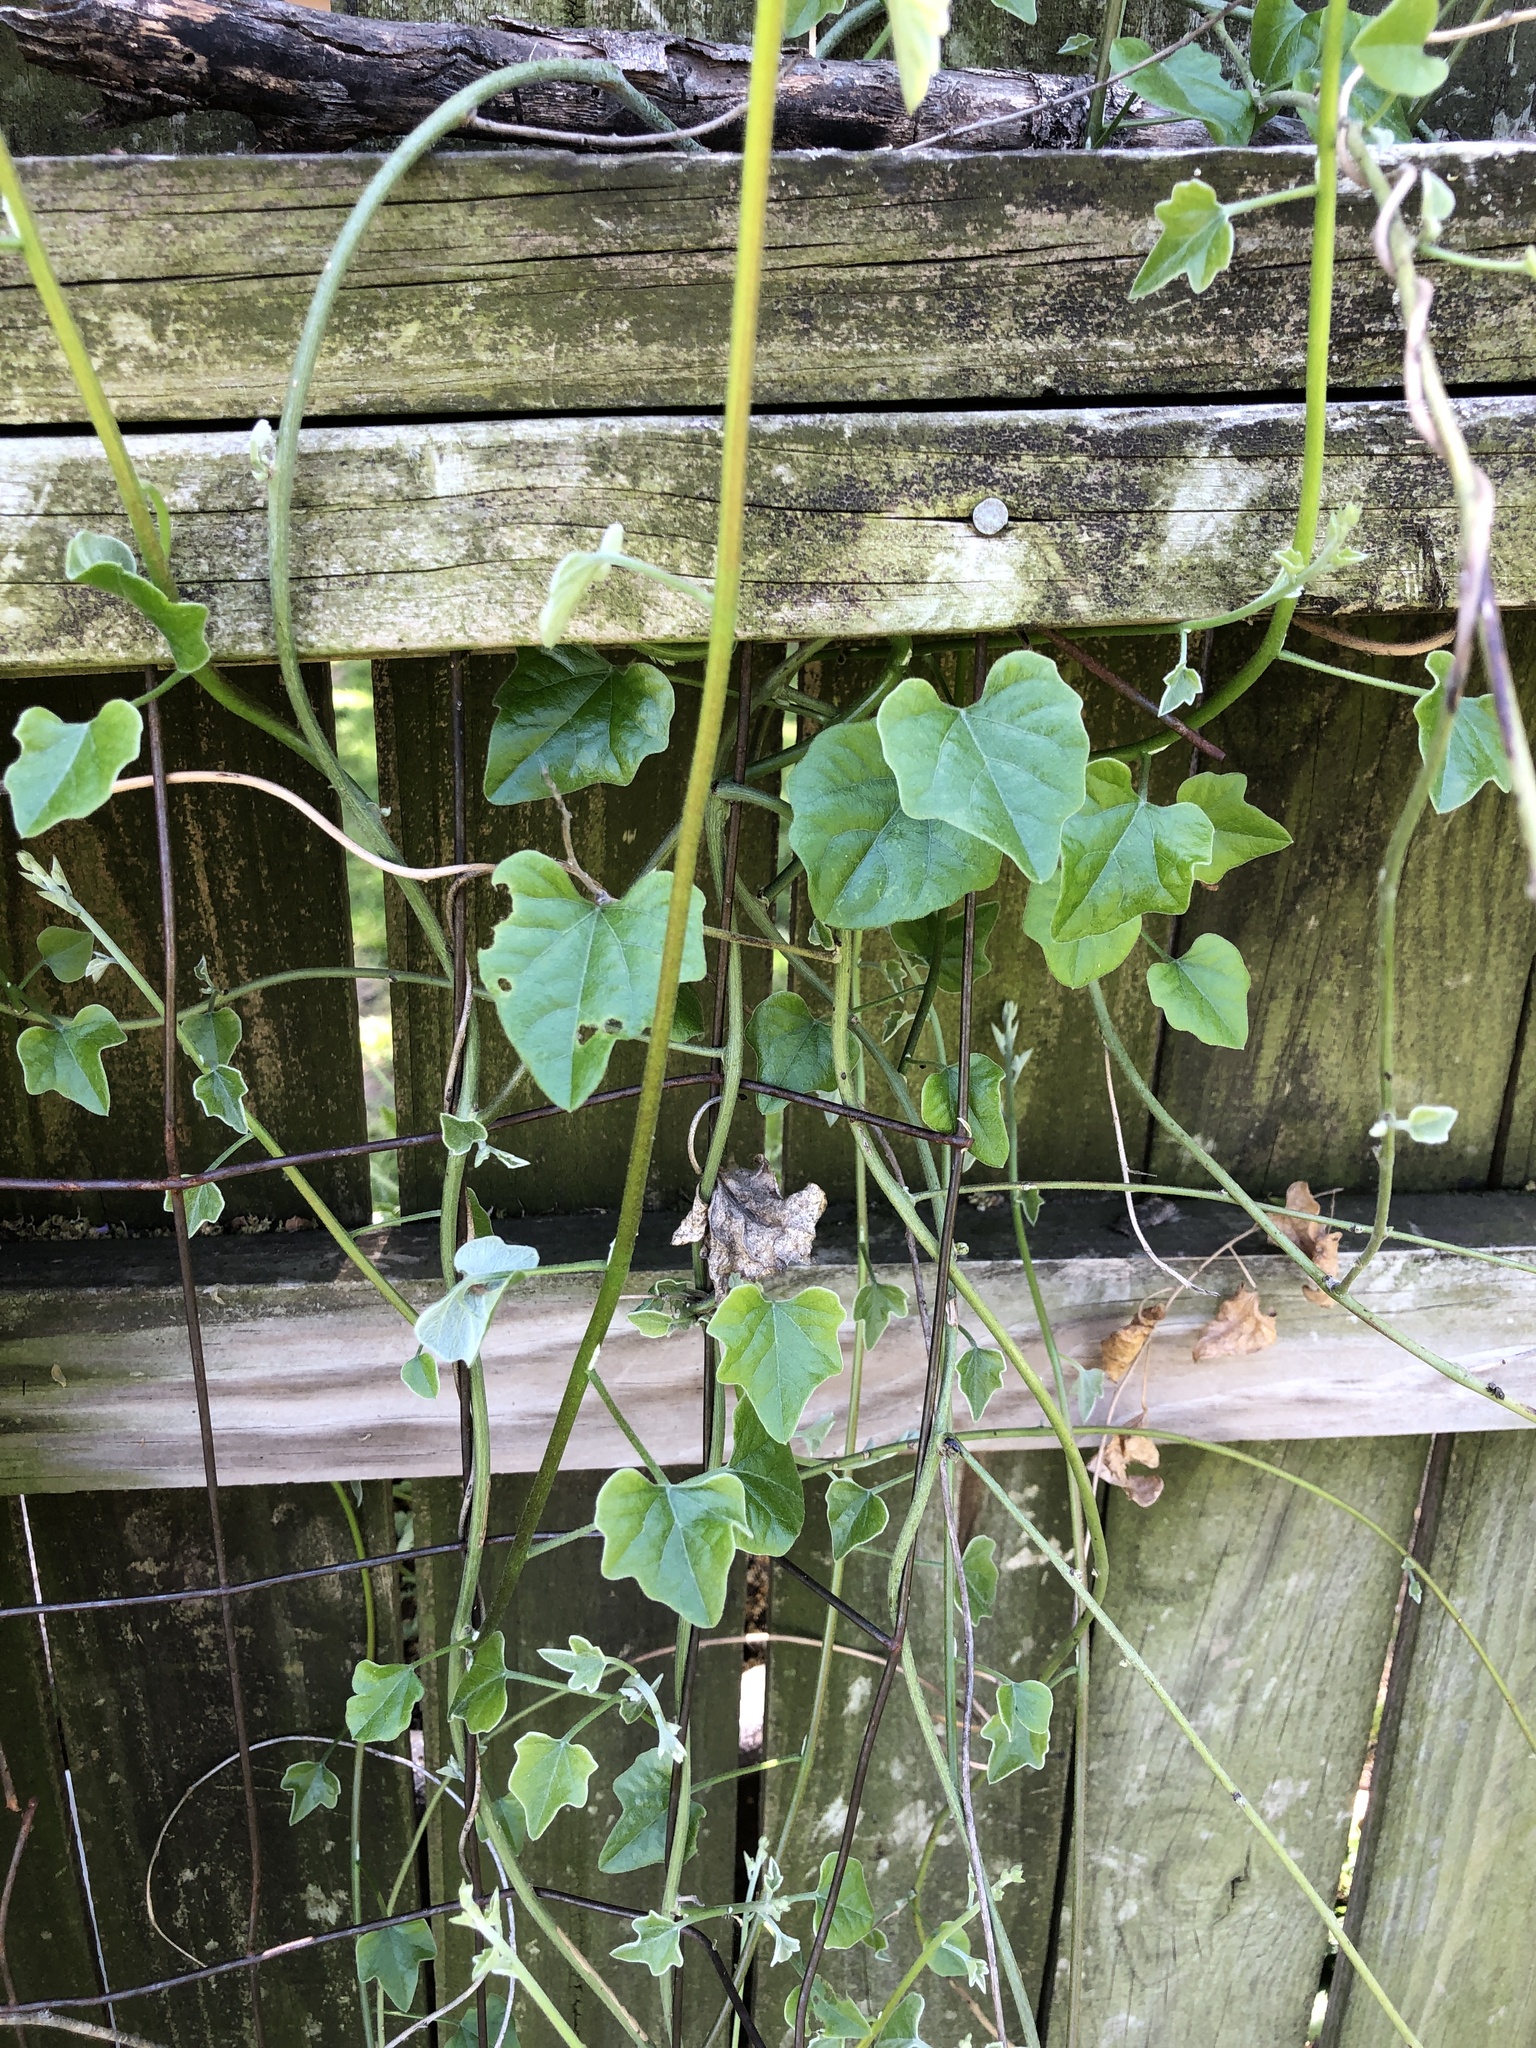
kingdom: Plantae
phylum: Tracheophyta
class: Magnoliopsida
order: Ranunculales
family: Menispermaceae
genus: Cocculus
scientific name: Cocculus carolinus
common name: Carolina moonseed
